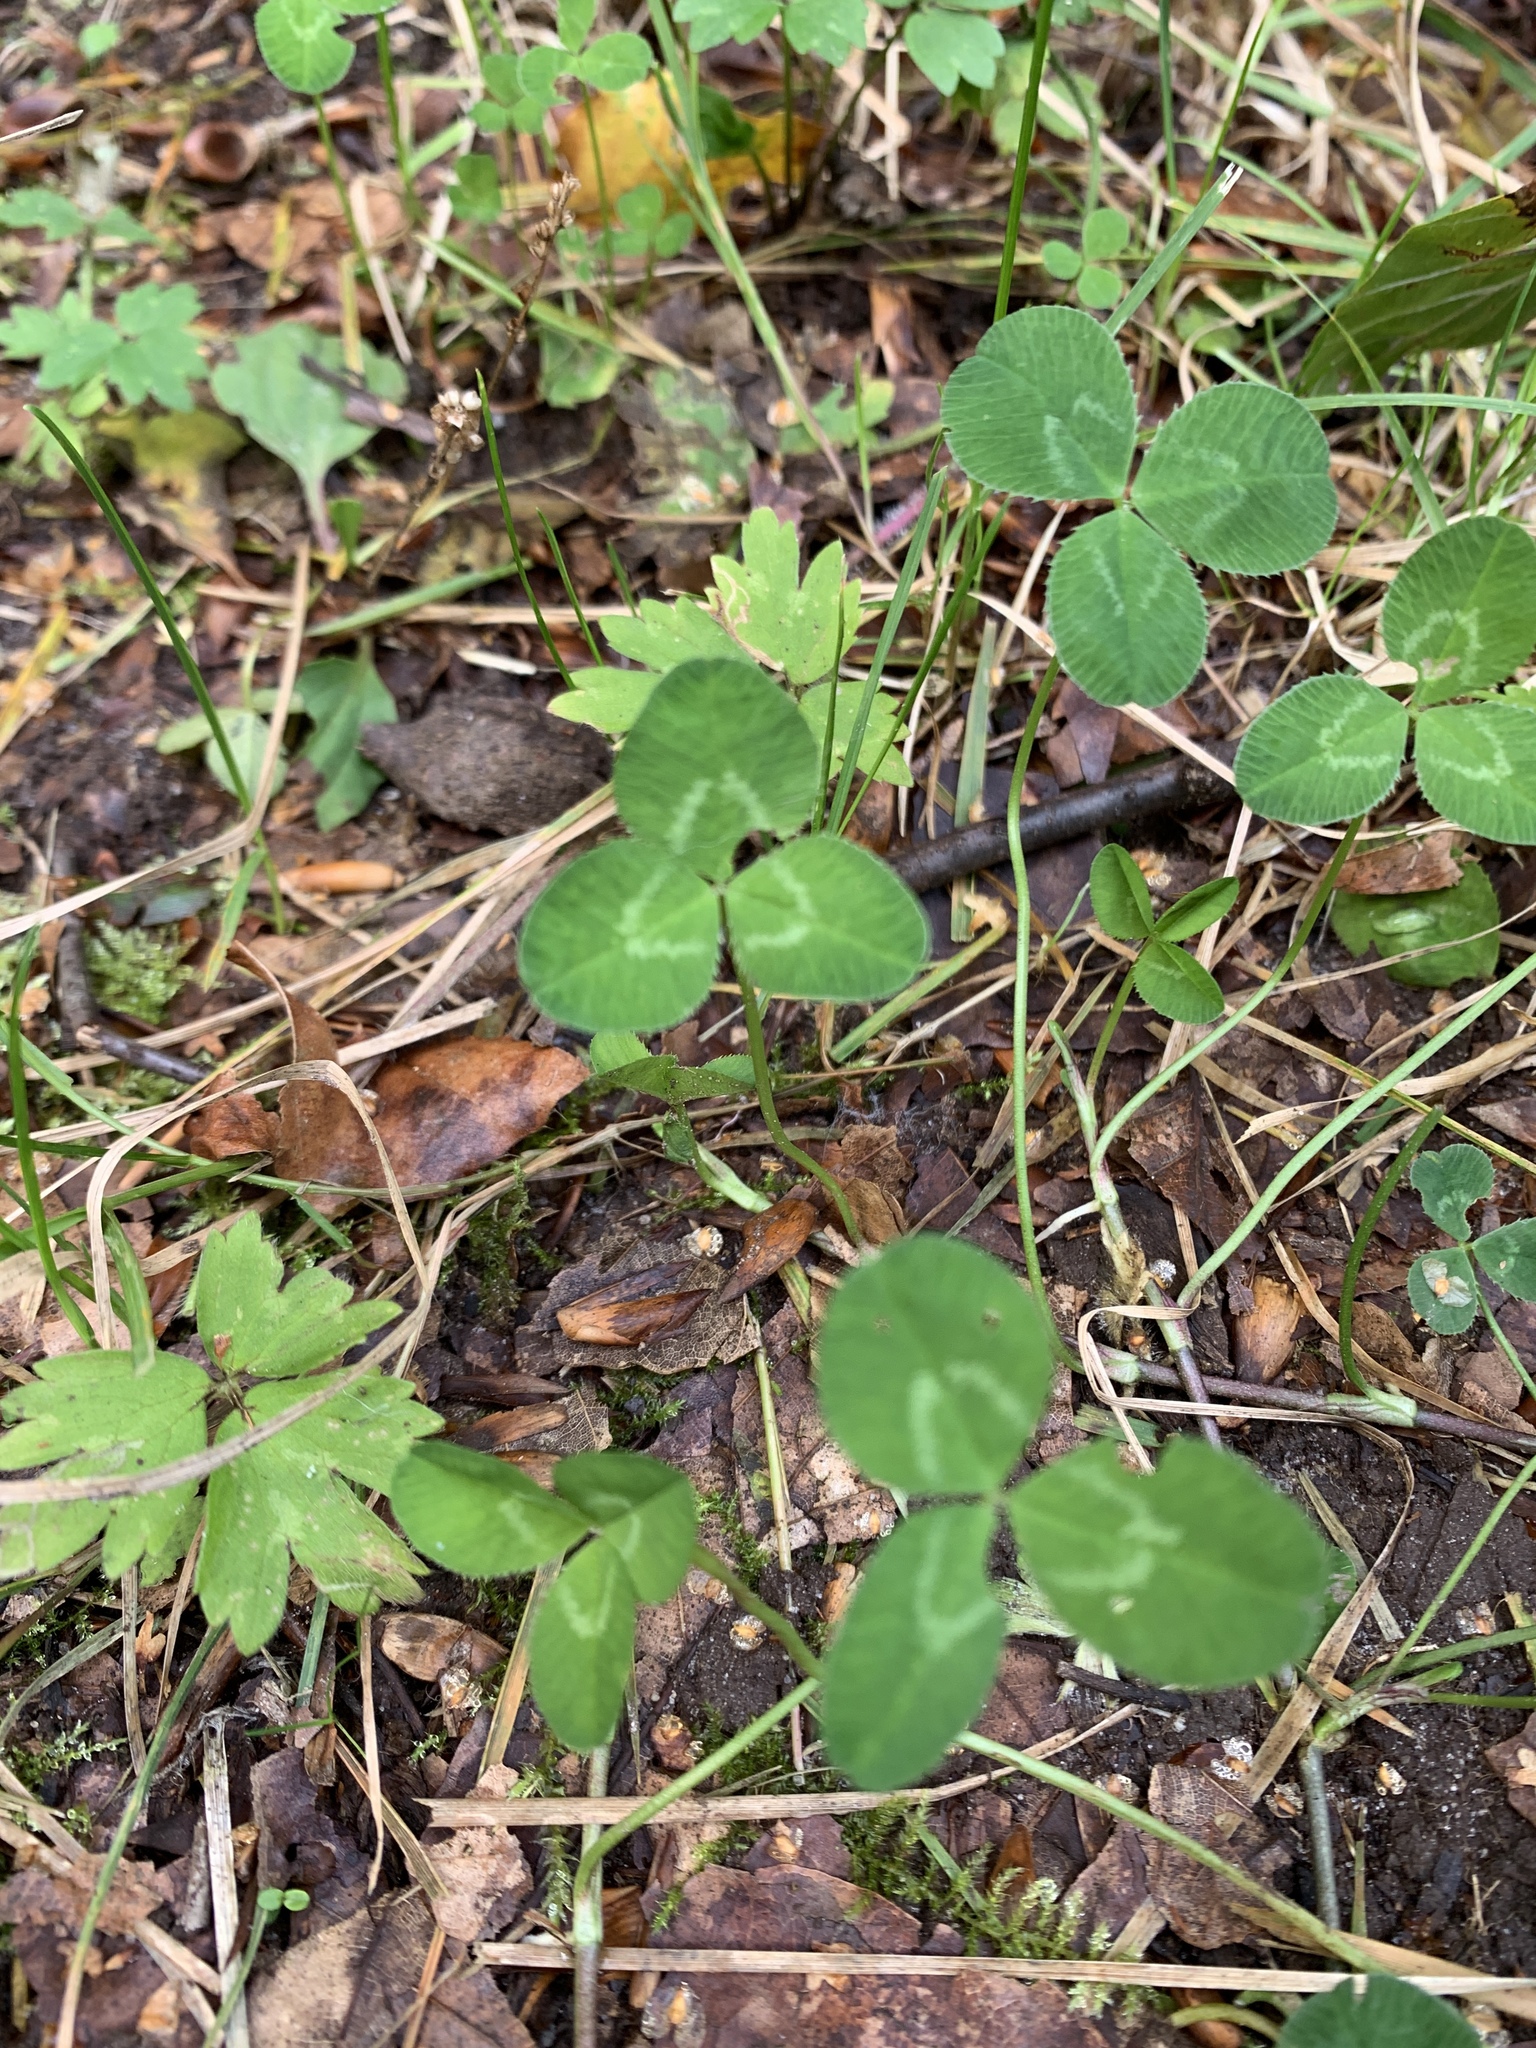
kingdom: Plantae
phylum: Tracheophyta
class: Magnoliopsida
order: Fabales
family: Fabaceae
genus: Trifolium
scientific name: Trifolium repens
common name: White clover
